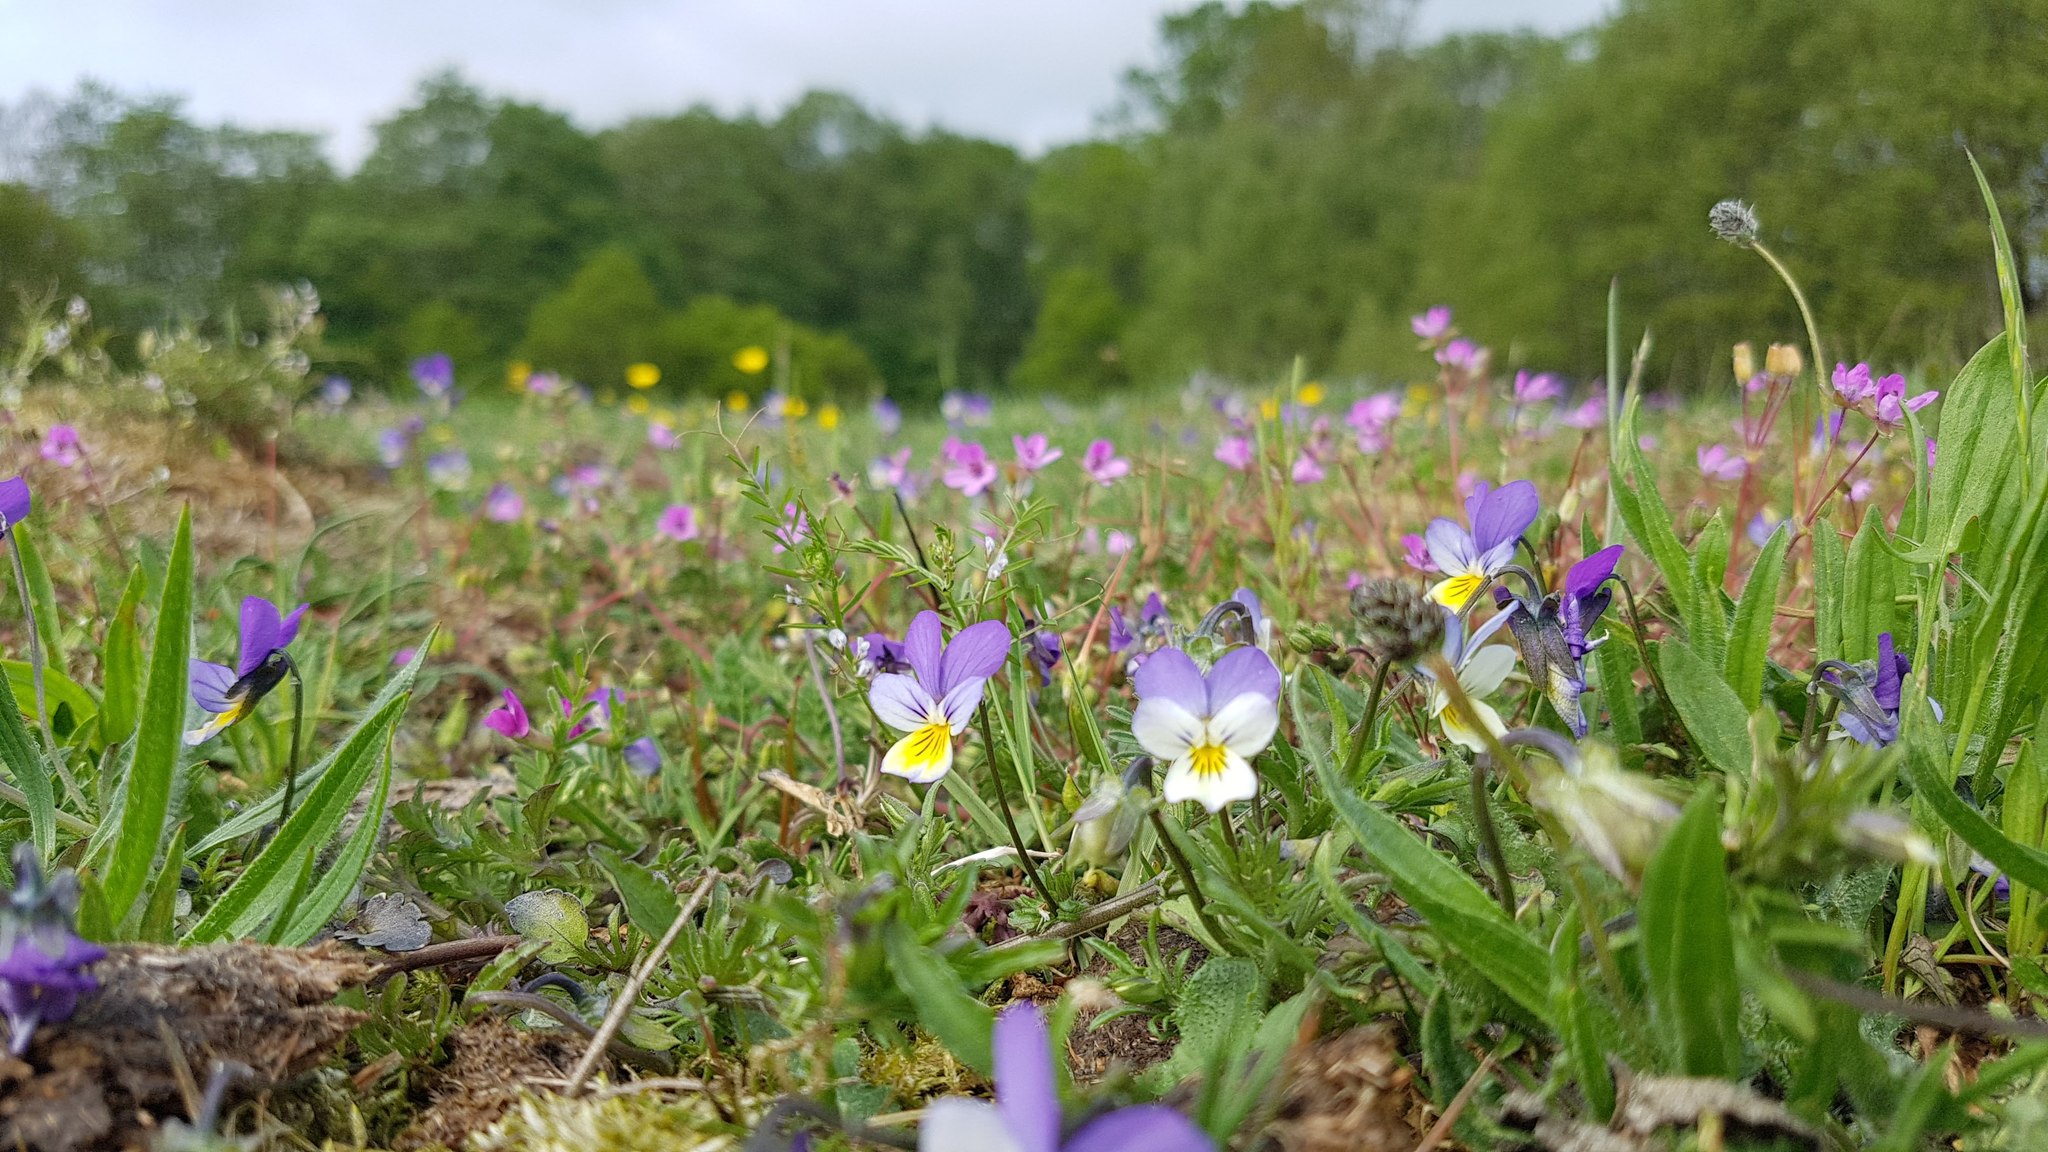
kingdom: Plantae
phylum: Tracheophyta
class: Magnoliopsida
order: Malpighiales
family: Violaceae
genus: Viola
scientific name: Viola tricolor
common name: Pansy
